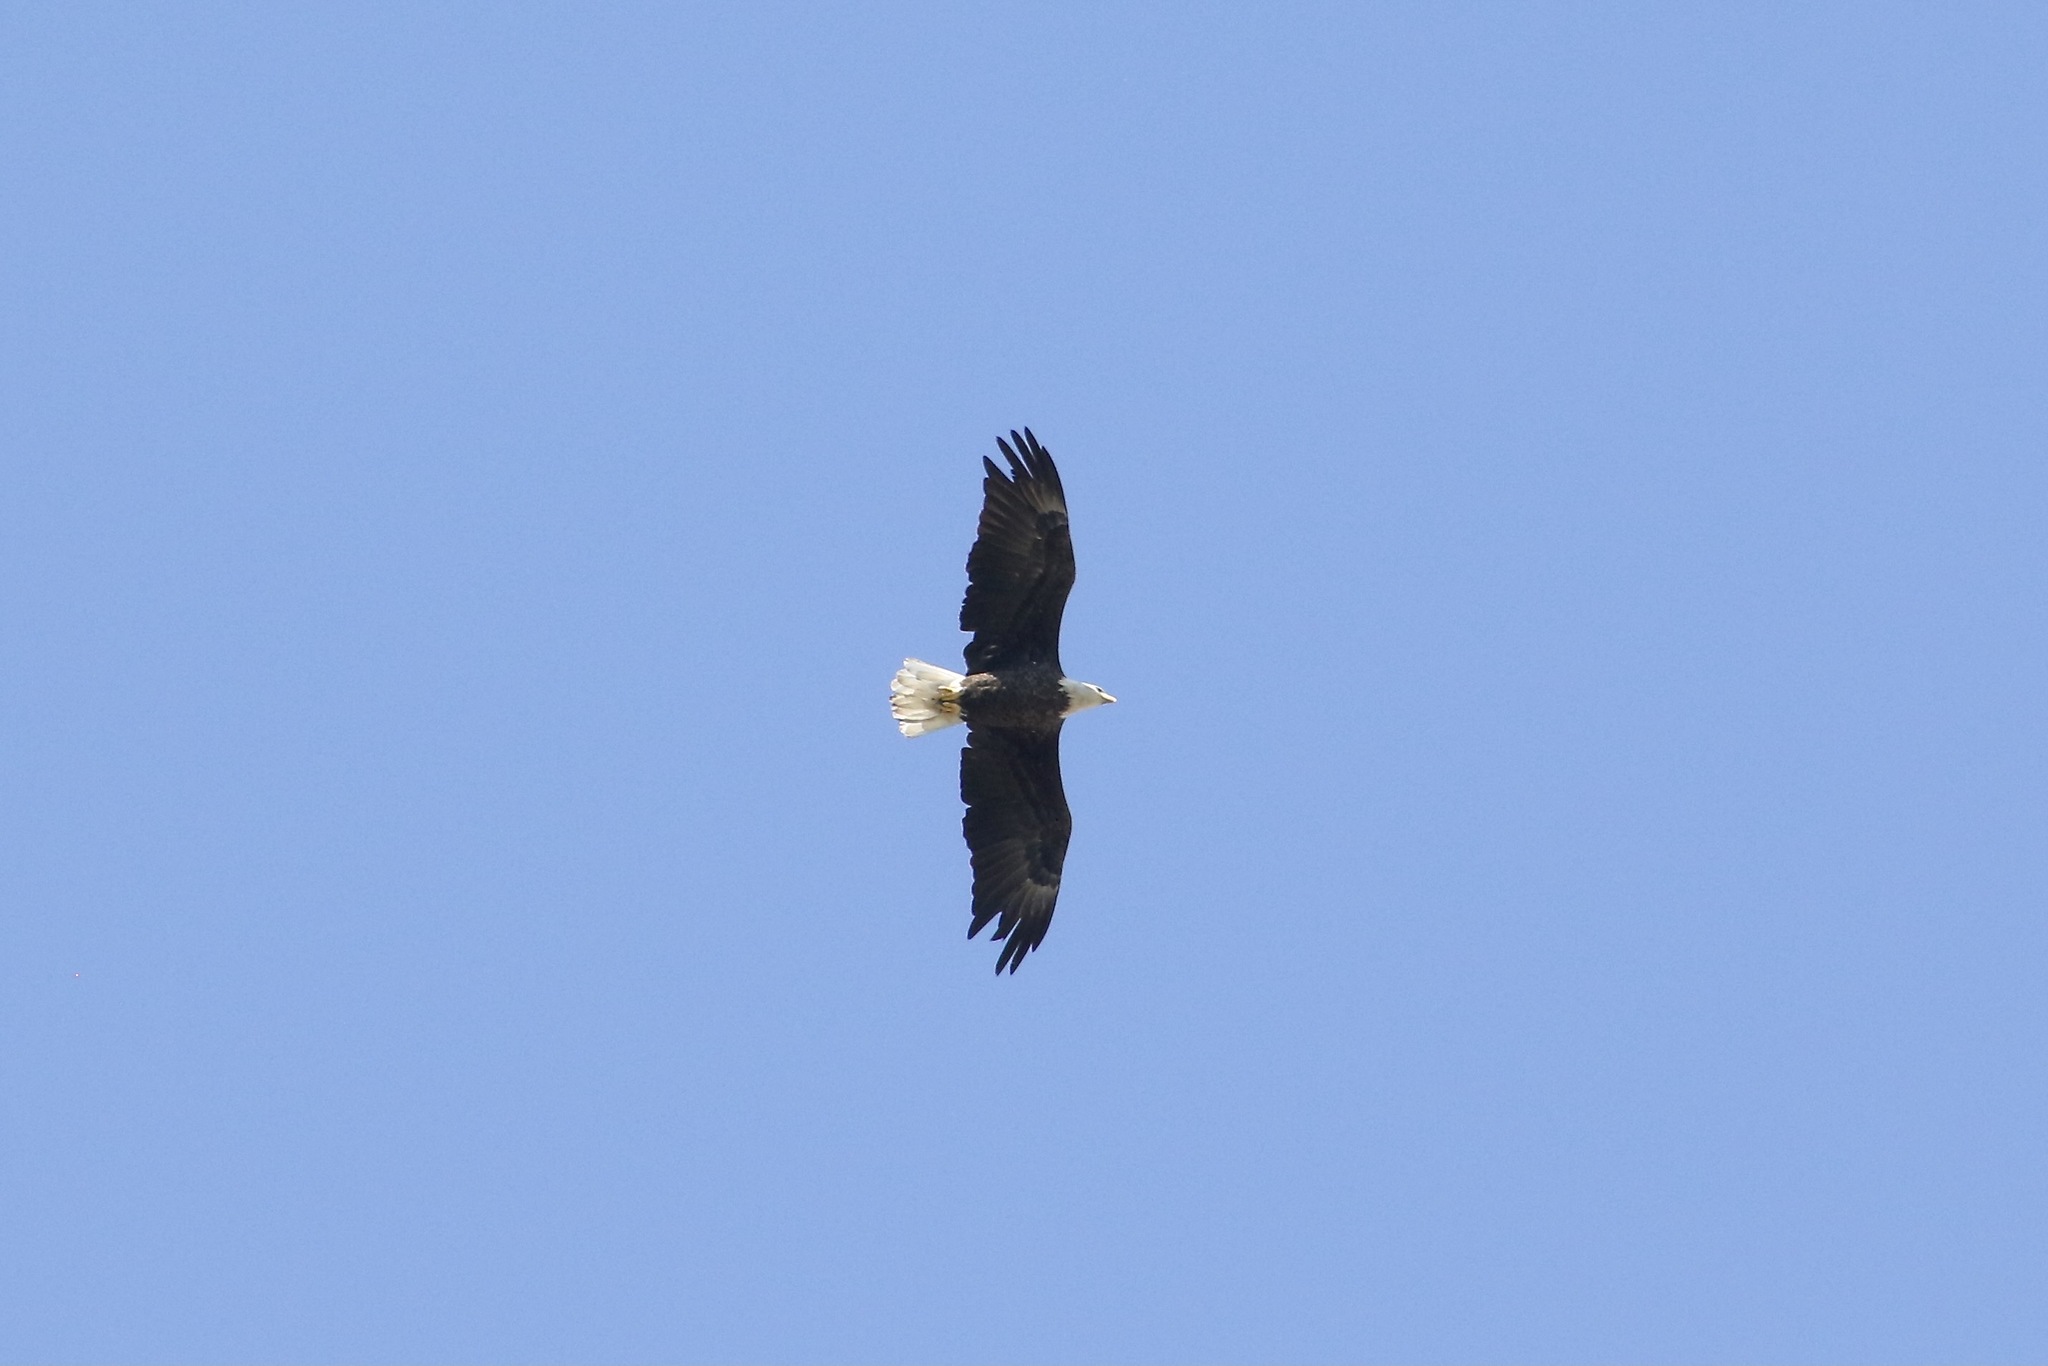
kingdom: Animalia
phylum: Chordata
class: Aves
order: Accipitriformes
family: Accipitridae
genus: Haliaeetus
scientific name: Haliaeetus leucocephalus
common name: Bald eagle
